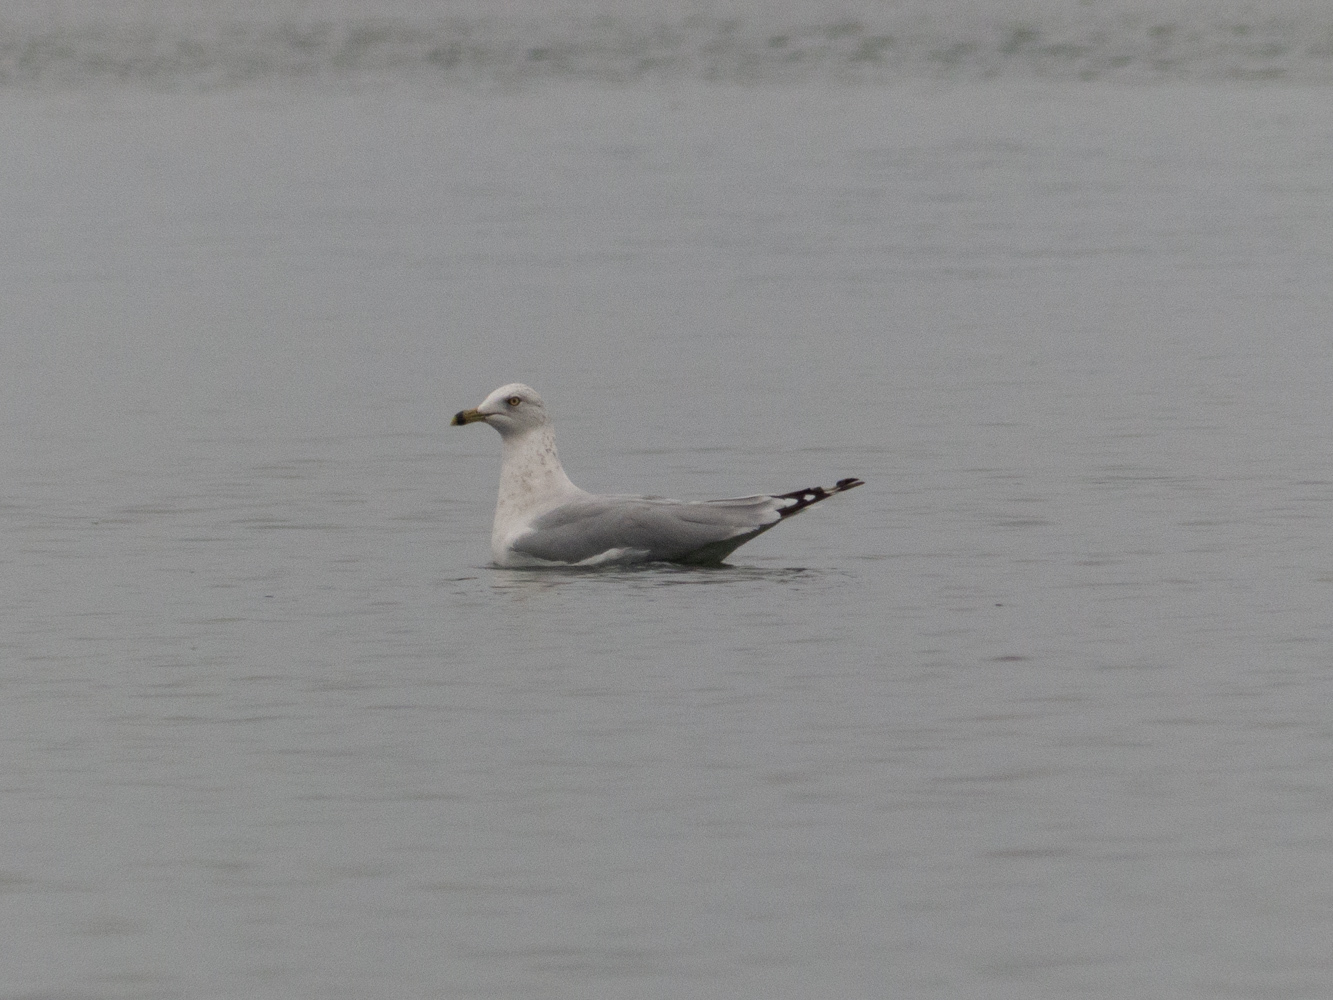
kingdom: Animalia
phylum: Chordata
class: Aves
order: Charadriiformes
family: Laridae
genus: Larus
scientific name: Larus delawarensis
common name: Ring-billed gull
